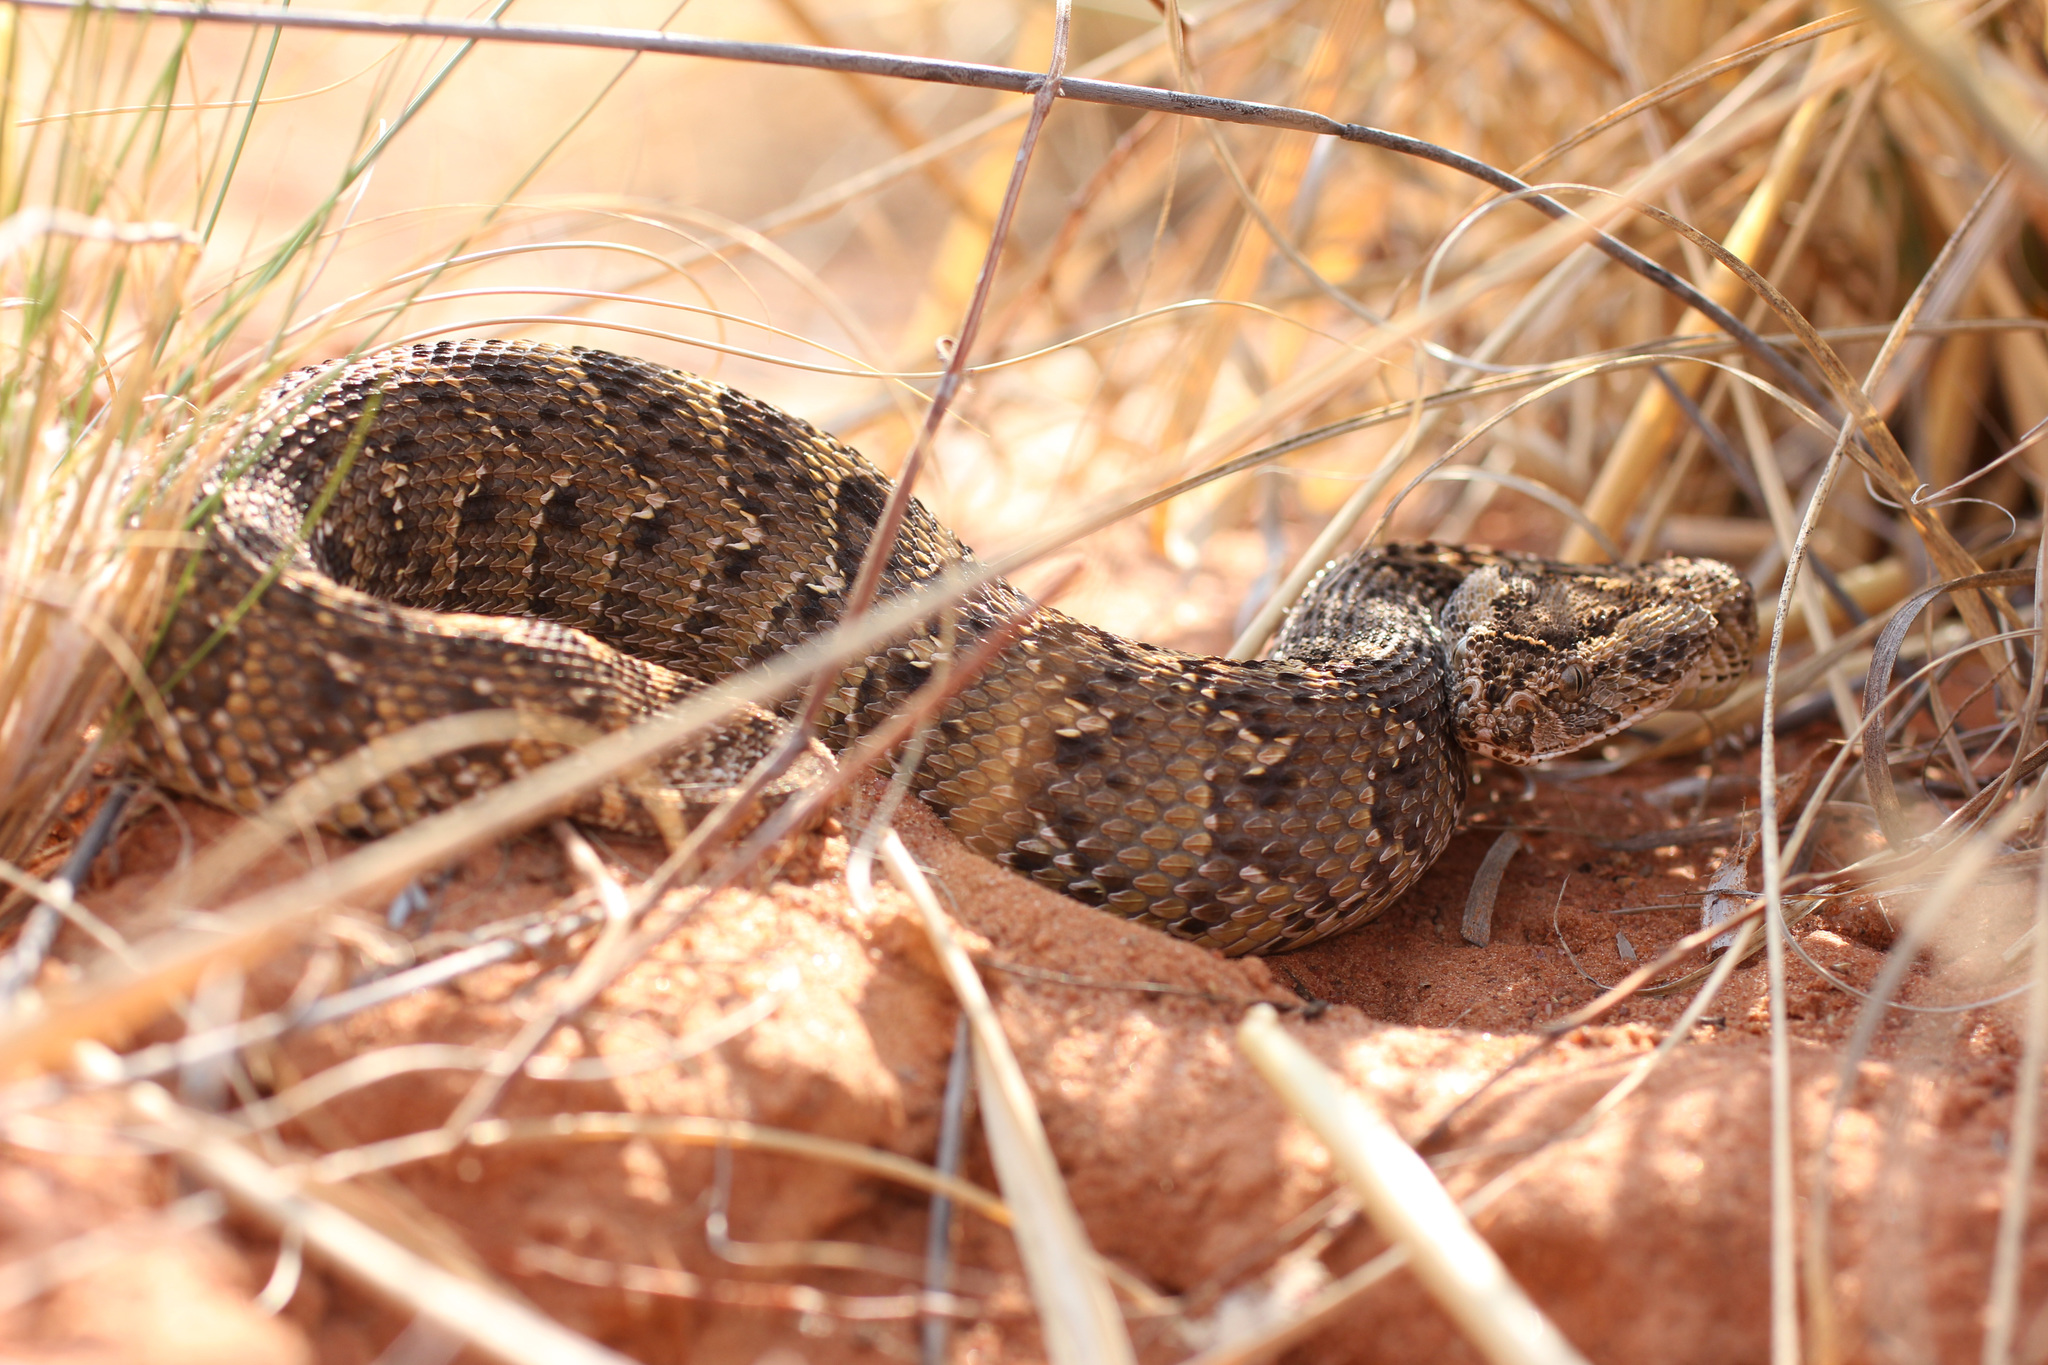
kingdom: Animalia
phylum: Chordata
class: Squamata
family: Viperidae
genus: Bitis
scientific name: Bitis arietans
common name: Puff adder
